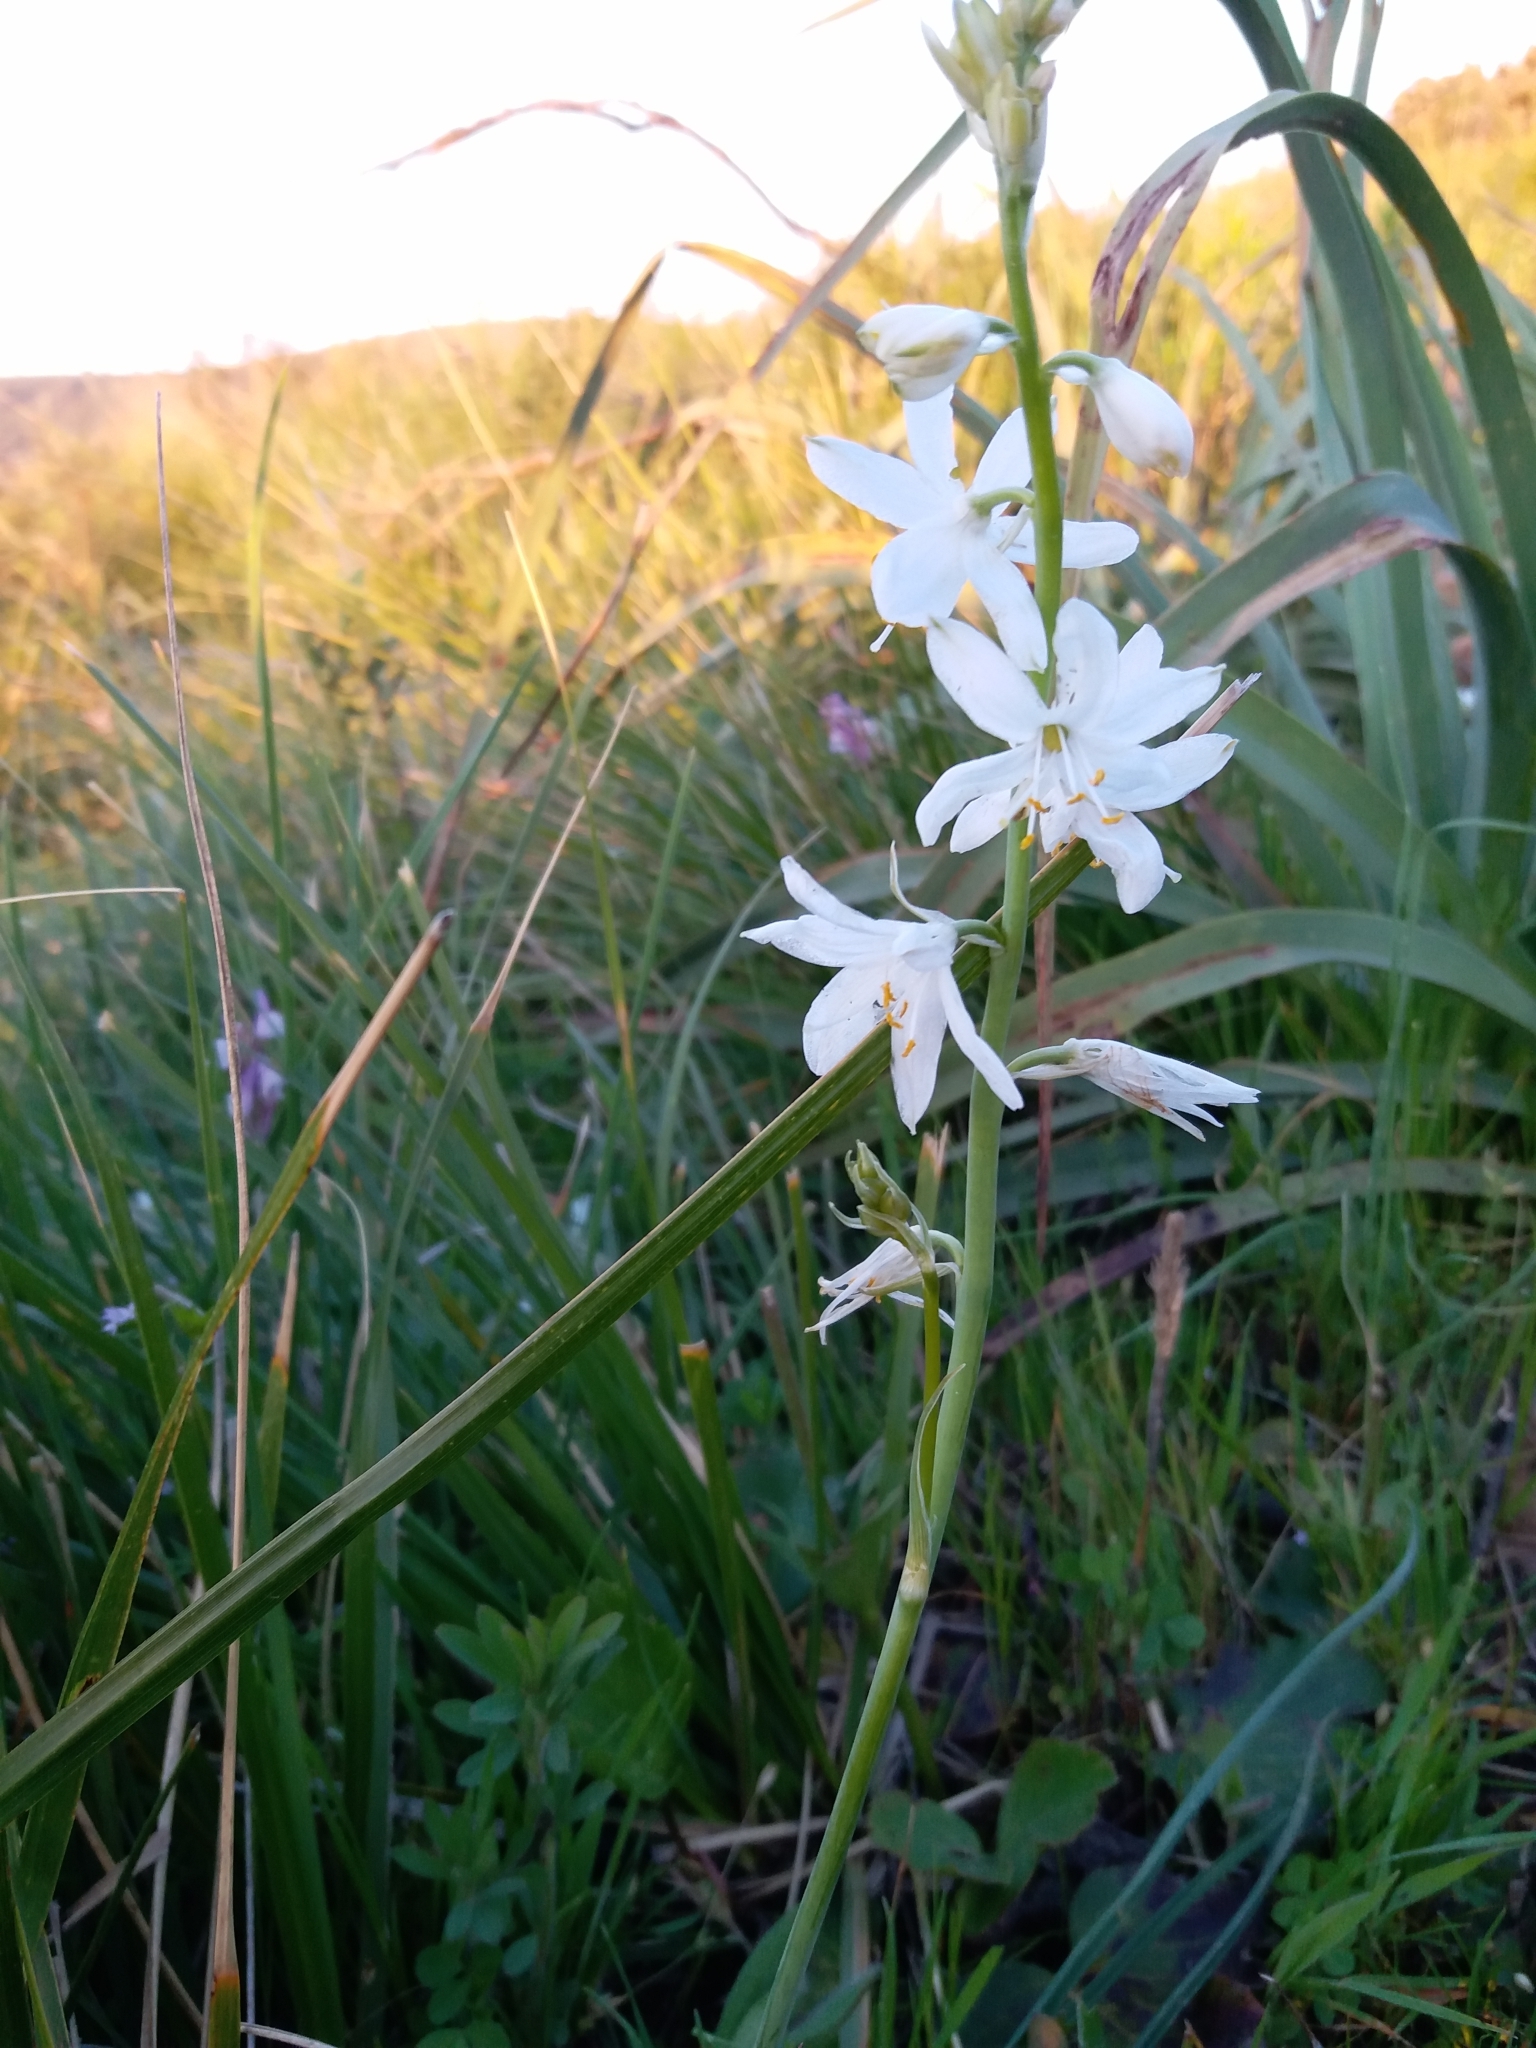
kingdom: Plantae
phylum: Tracheophyta
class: Liliopsida
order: Asparagales
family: Asparagaceae
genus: Anthericum
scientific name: Anthericum baeticum
